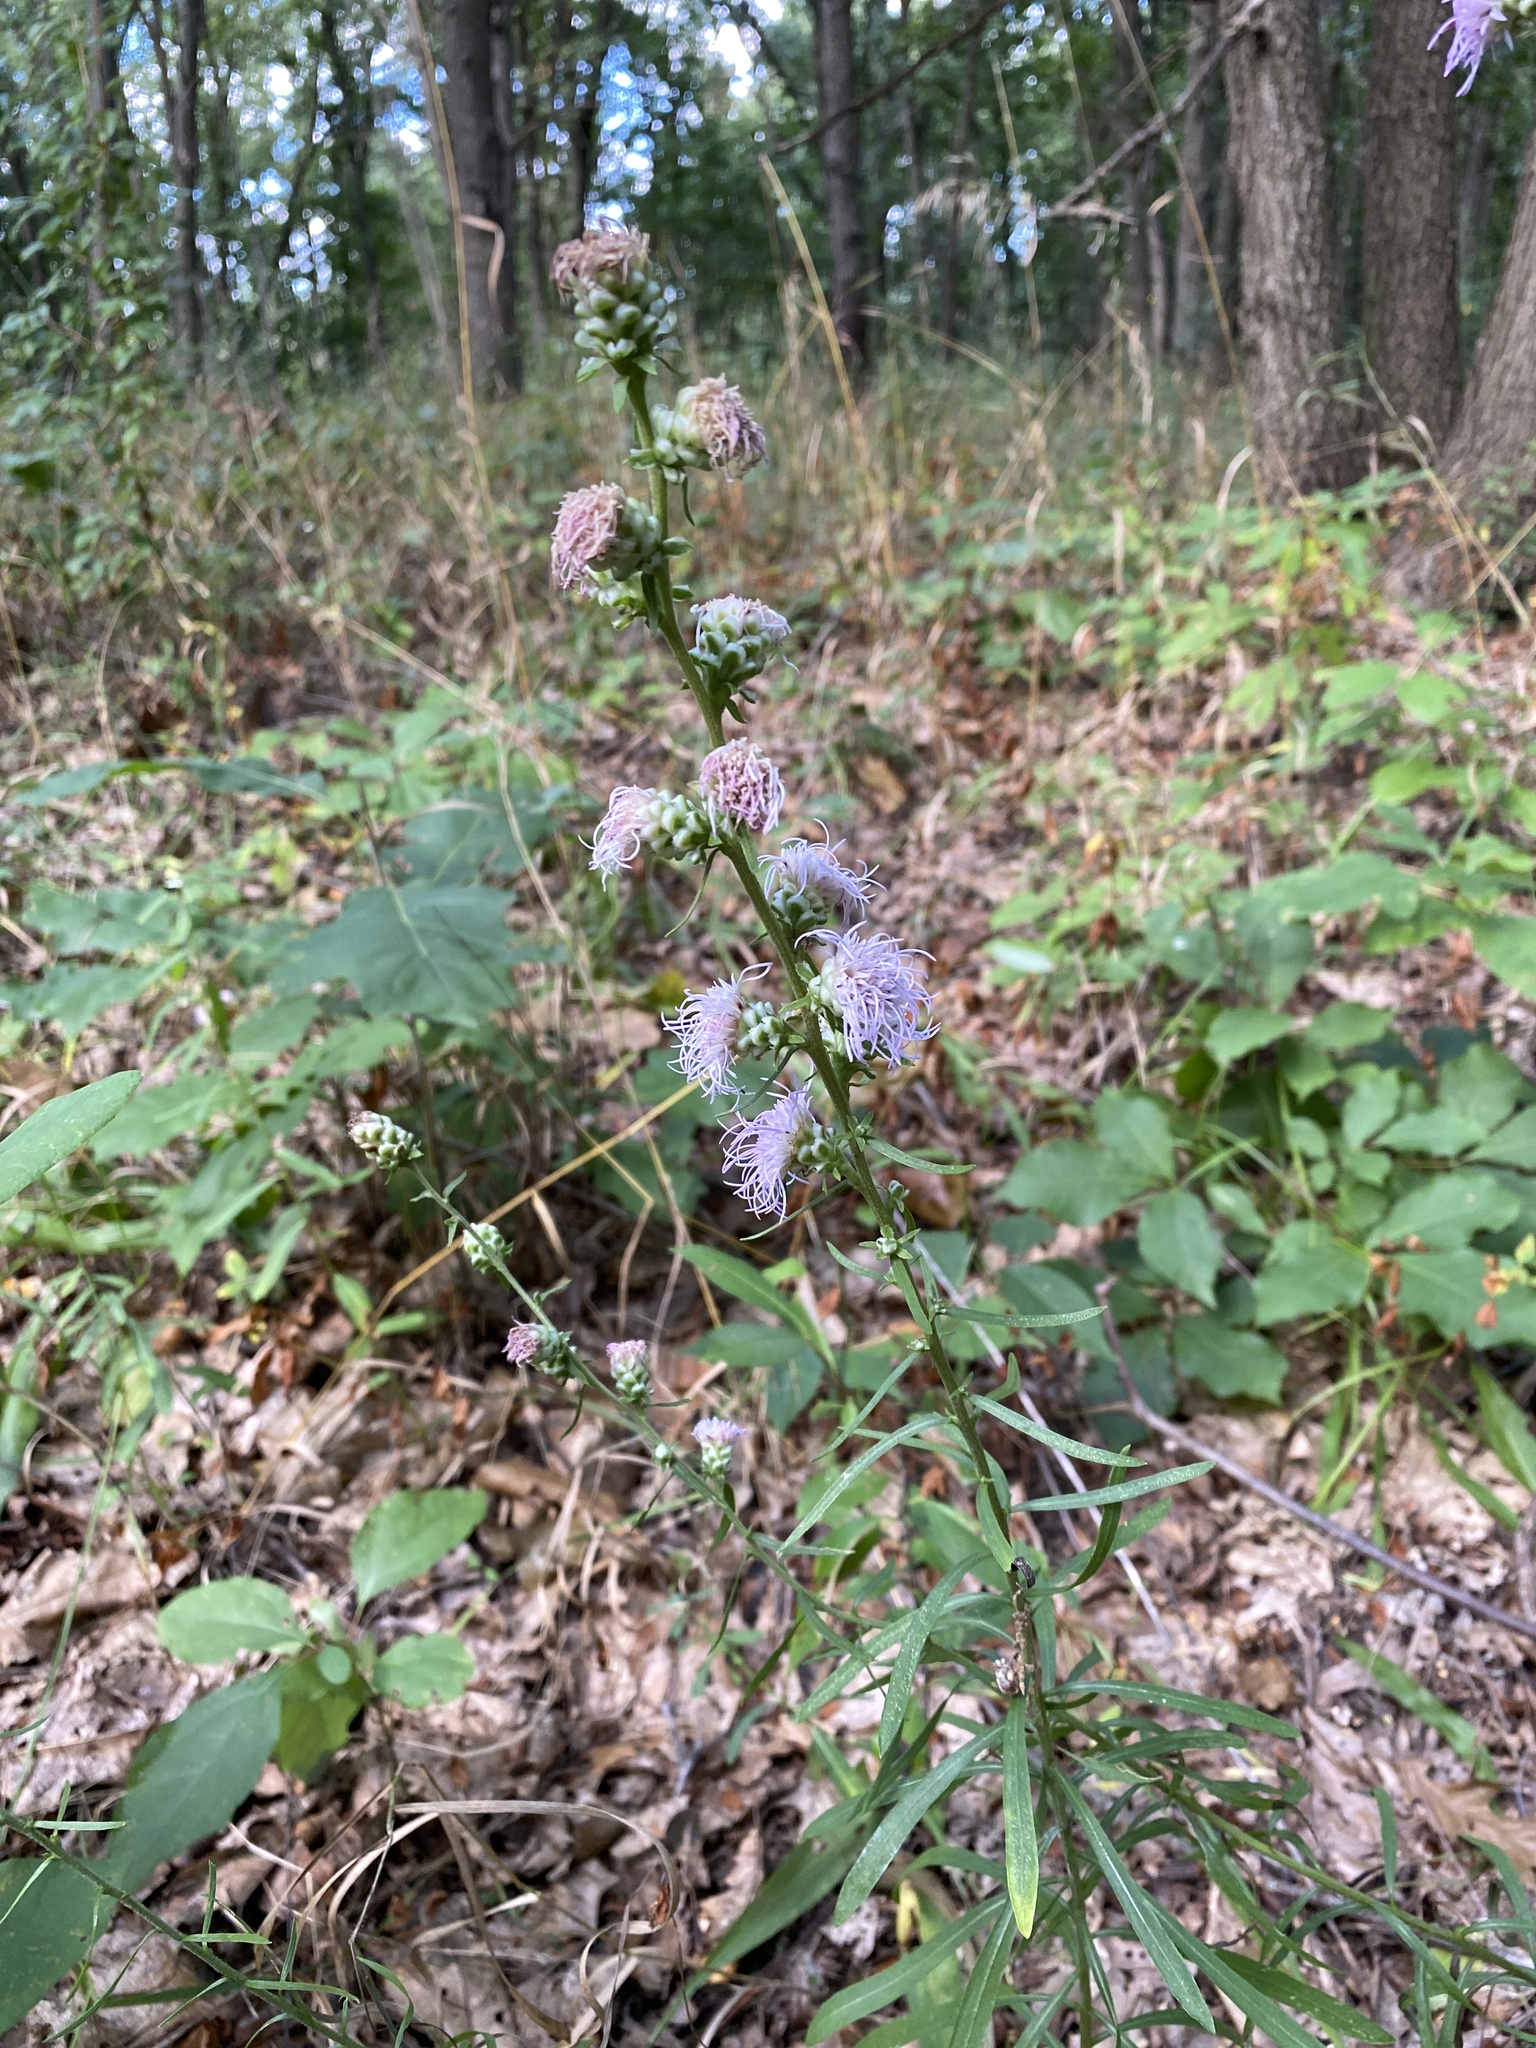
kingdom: Plantae
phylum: Tracheophyta
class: Magnoliopsida
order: Asterales
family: Asteraceae
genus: Liatris
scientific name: Liatris aspera
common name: Lacerate blazing-star
